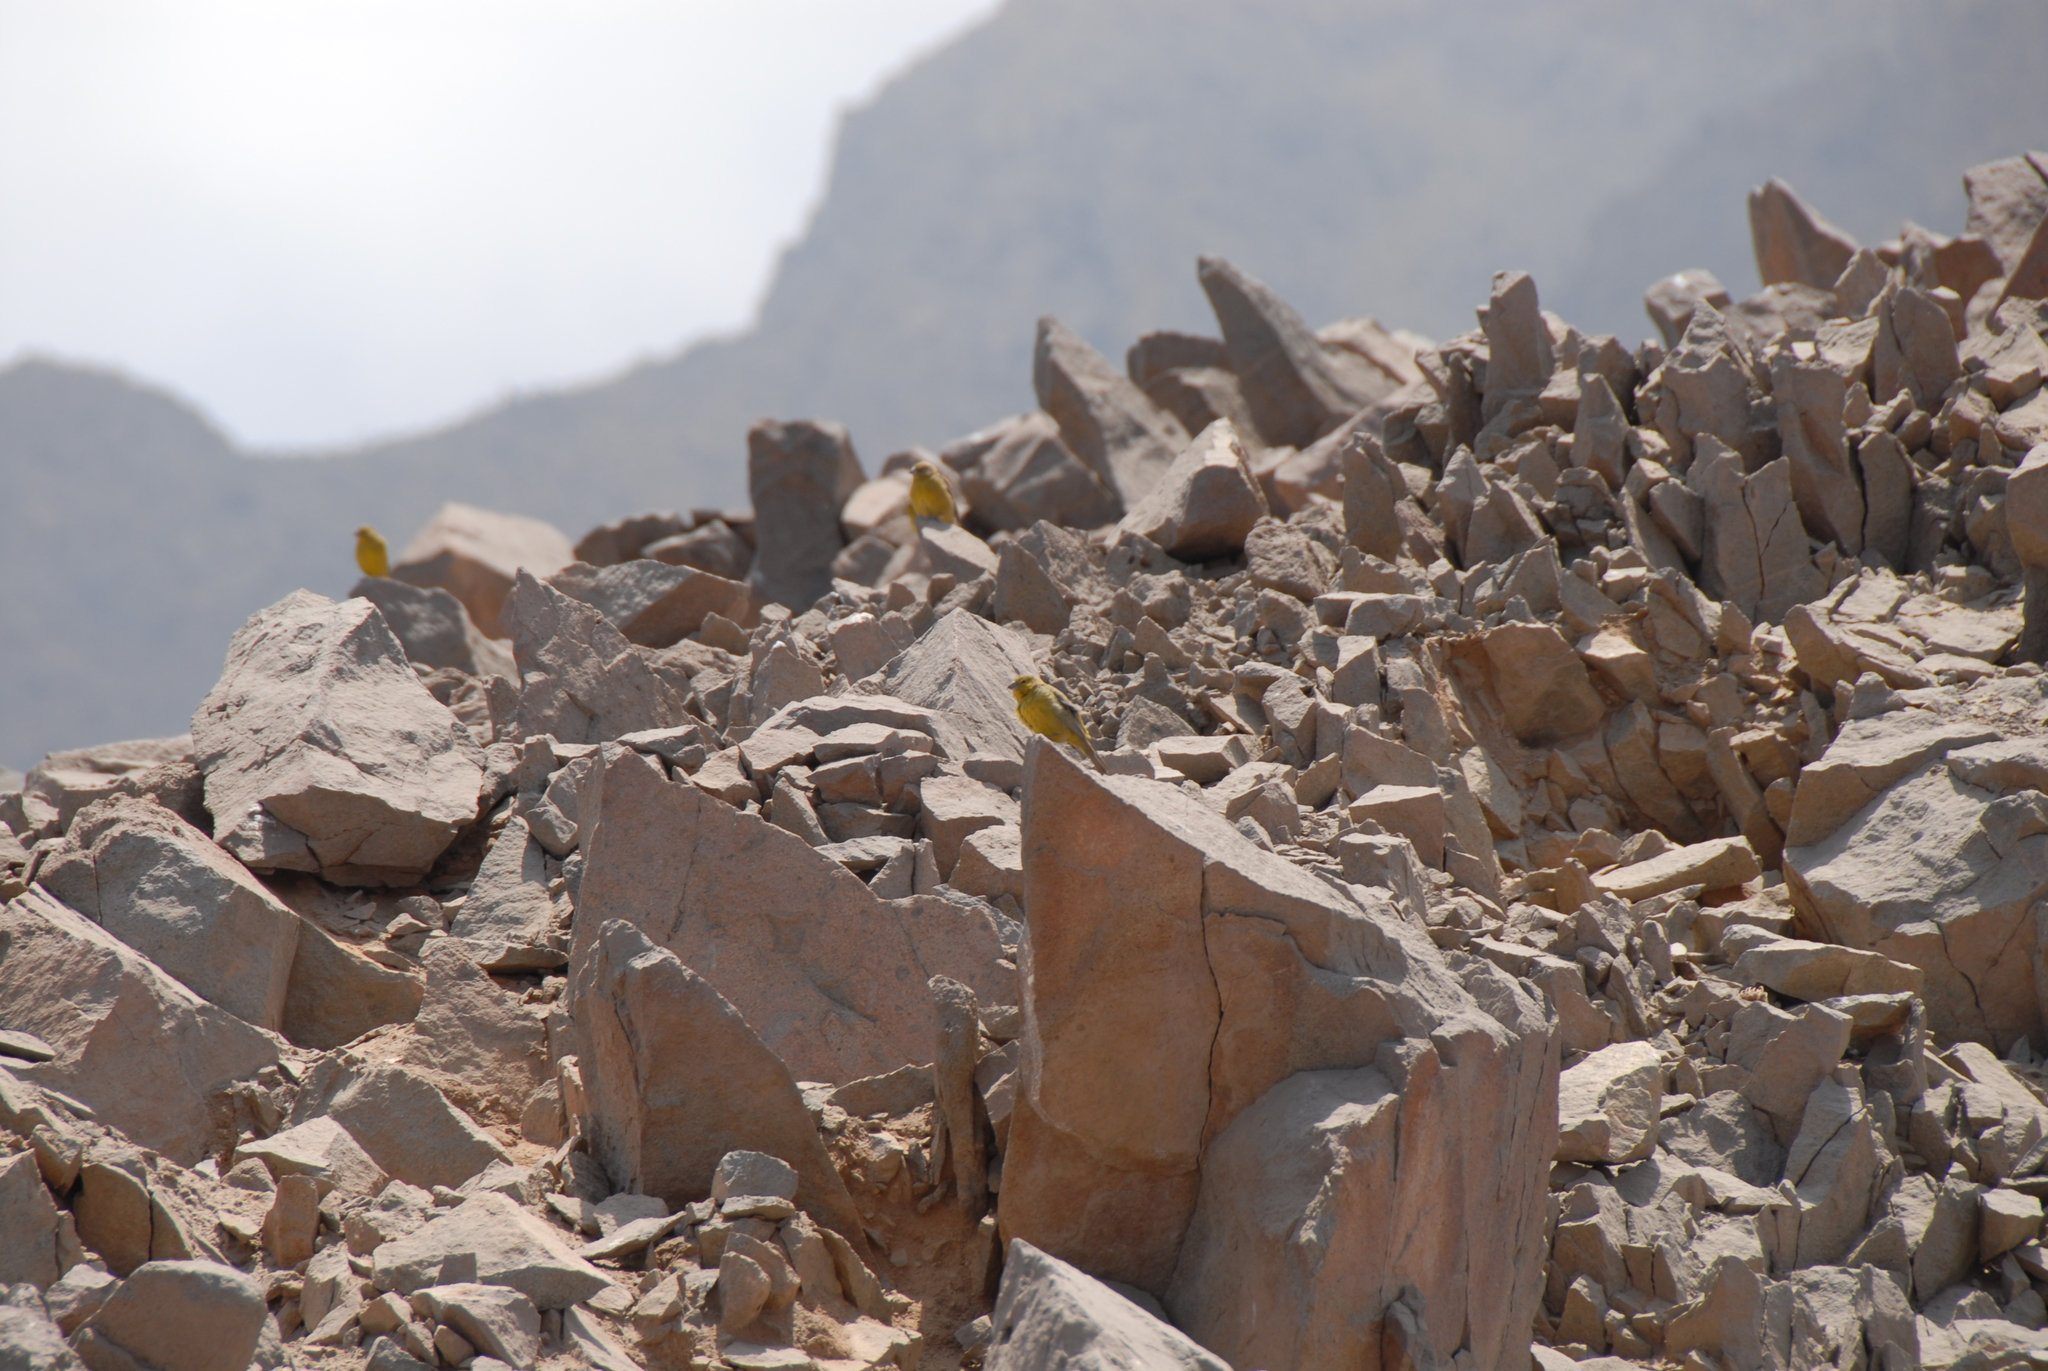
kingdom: Animalia
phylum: Chordata
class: Aves
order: Passeriformes
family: Thraupidae
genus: Sicalis
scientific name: Sicalis olivascens
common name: Greenish yellow finch
